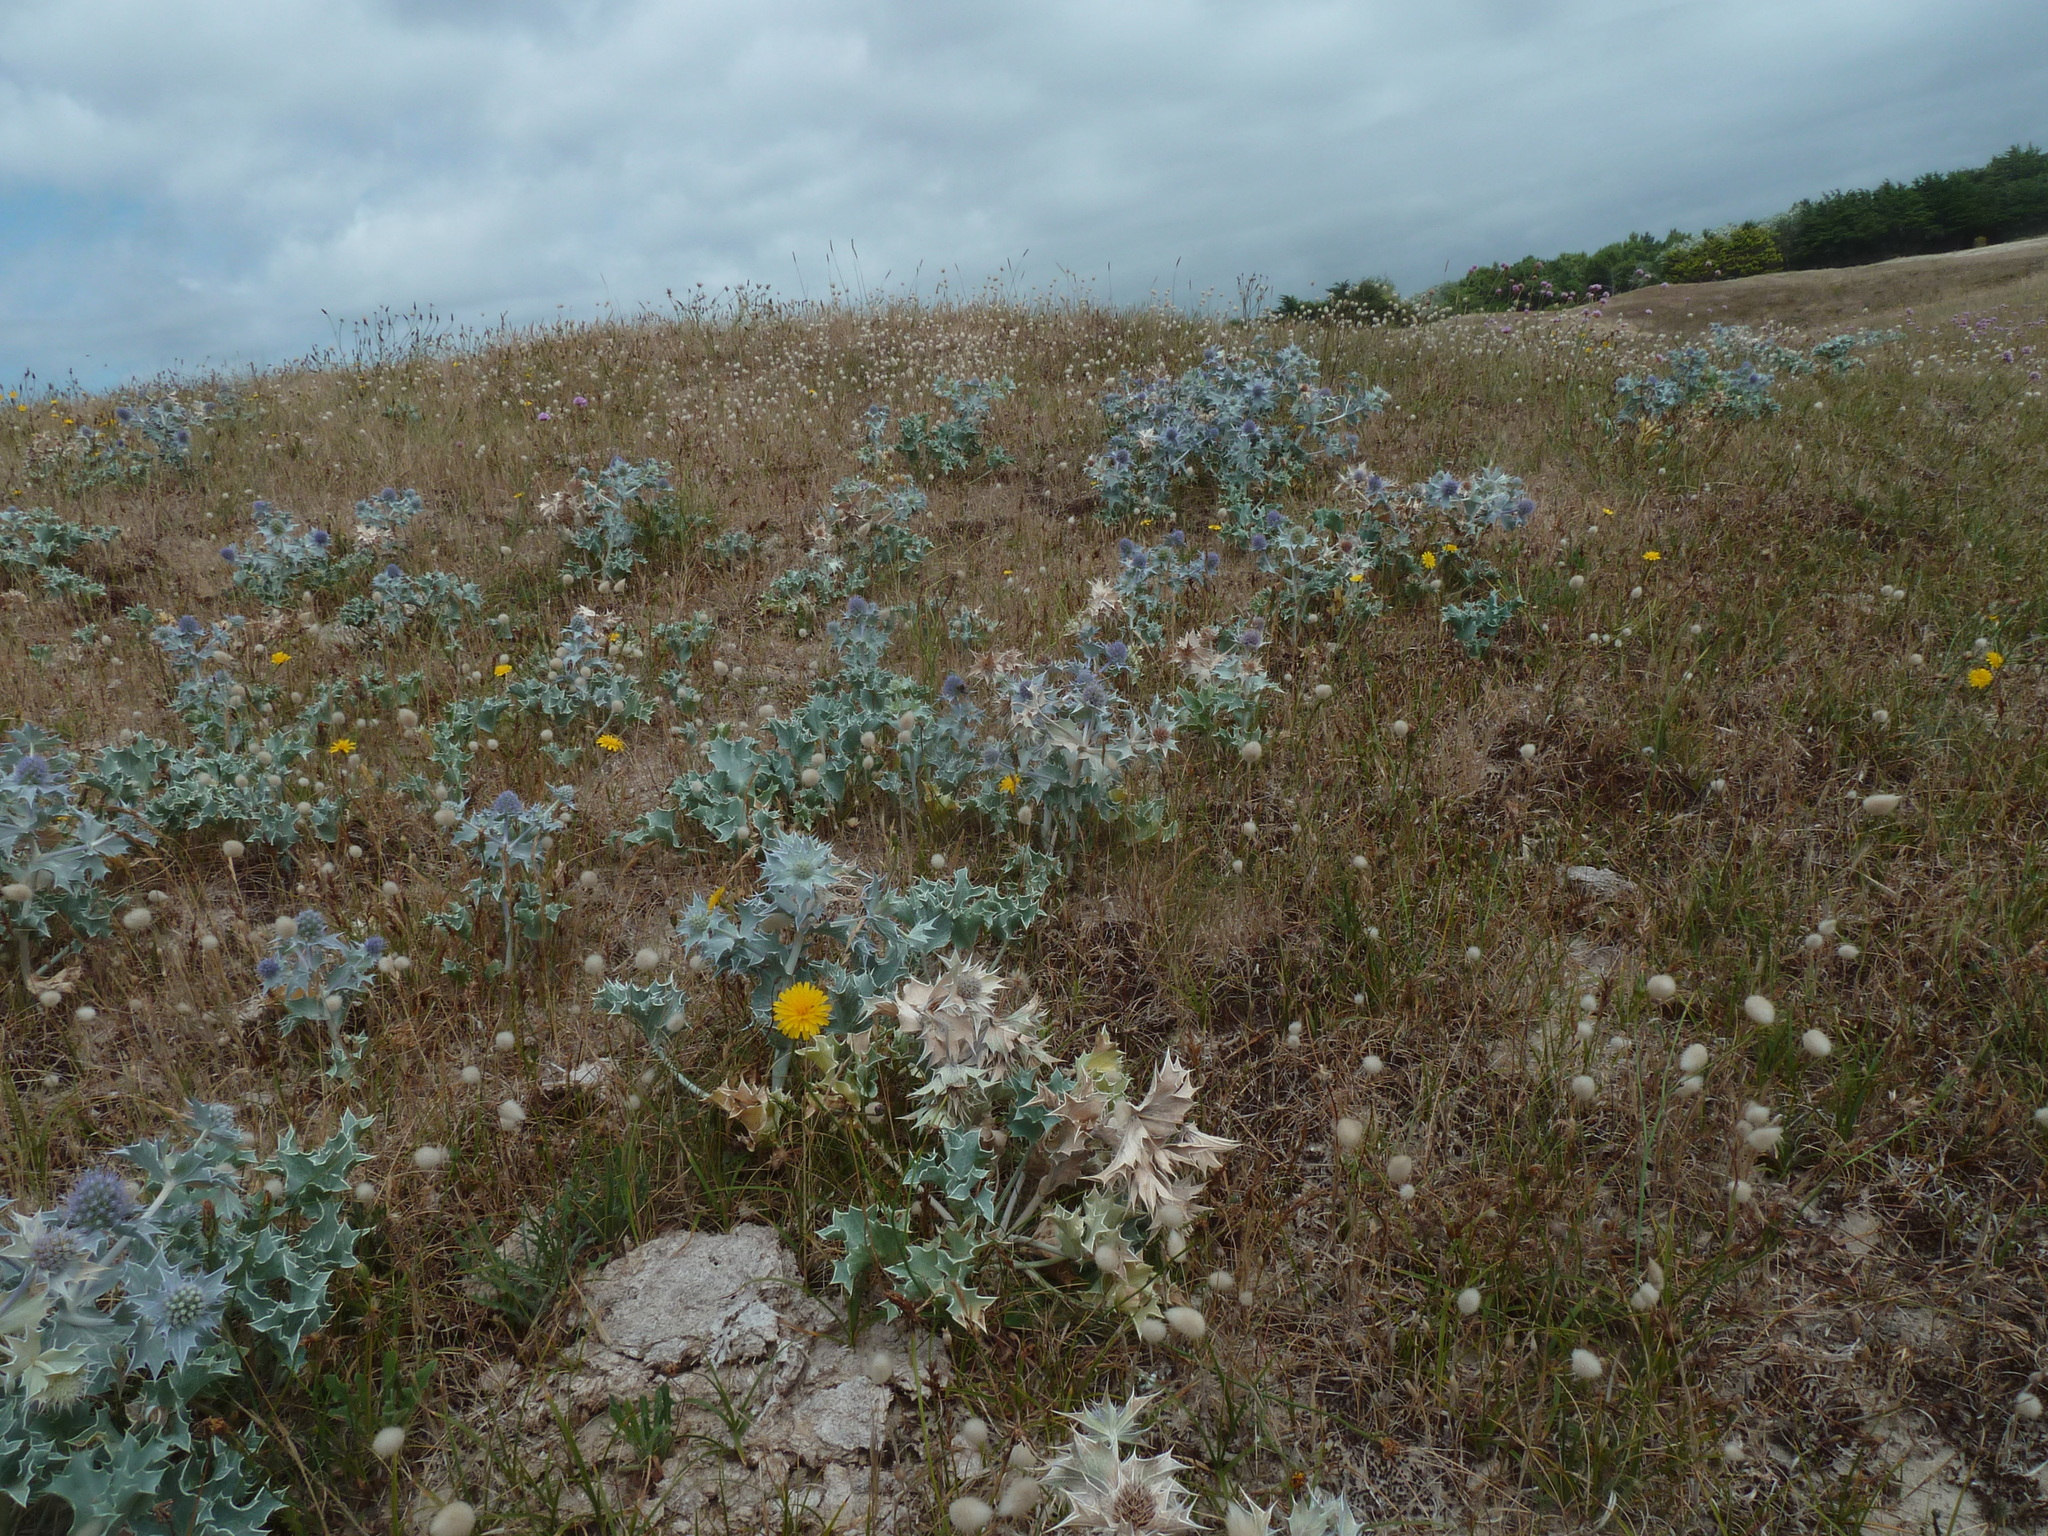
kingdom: Plantae
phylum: Tracheophyta
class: Magnoliopsida
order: Apiales
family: Apiaceae
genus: Eryngium
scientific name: Eryngium maritimum
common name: Sea-holly
